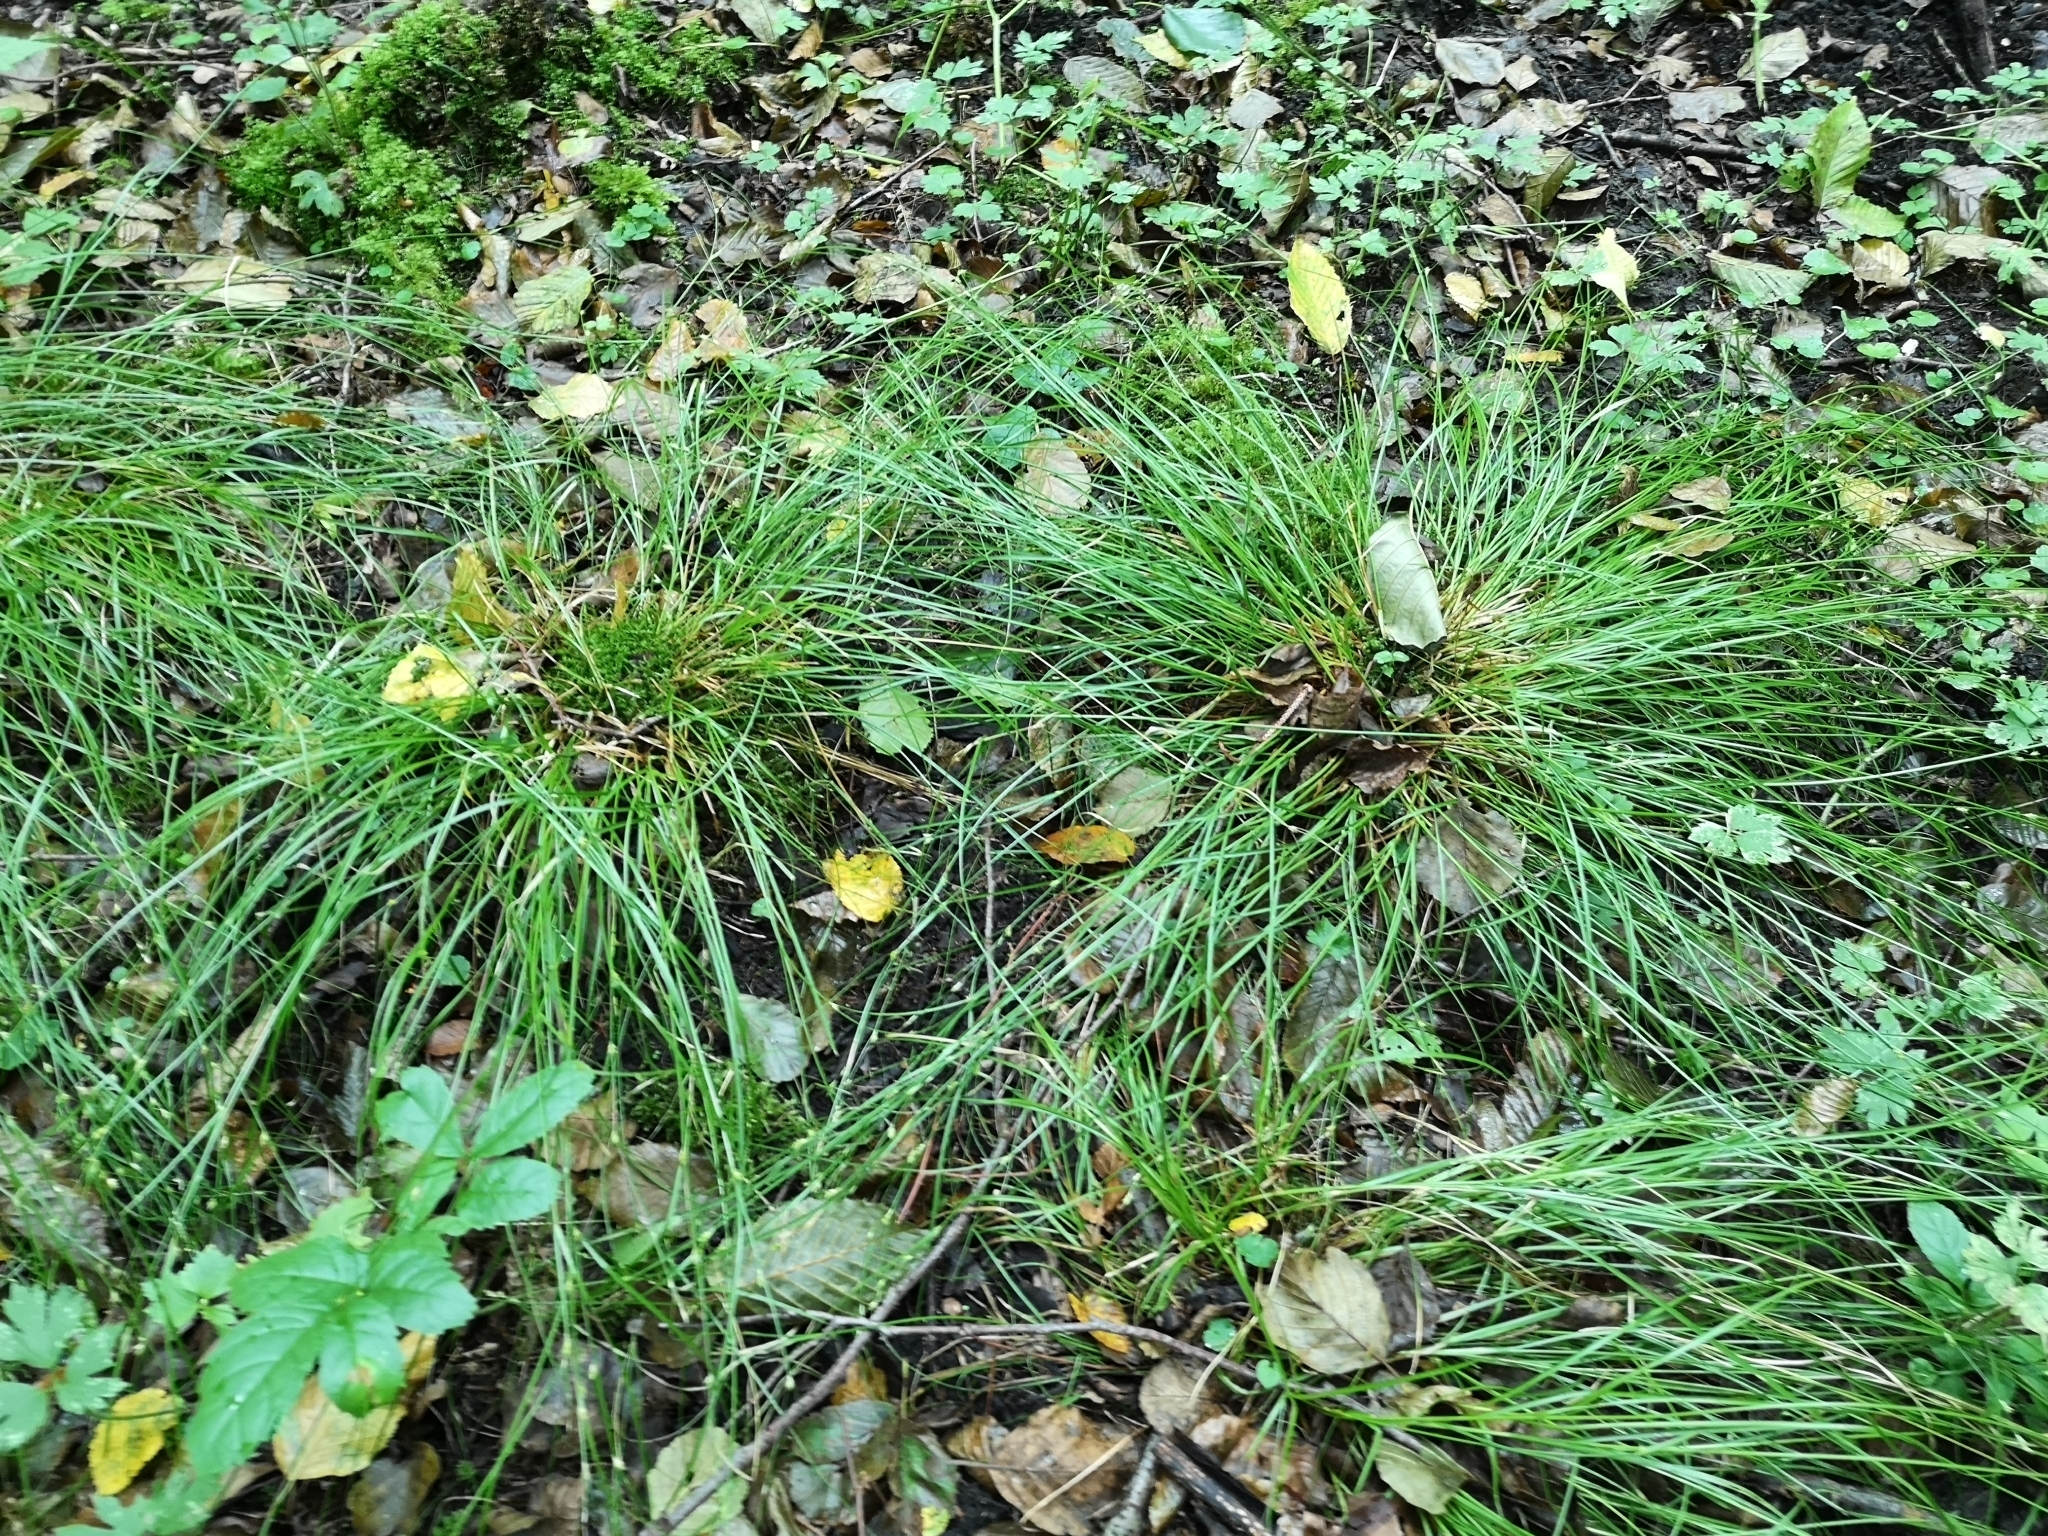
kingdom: Plantae
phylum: Tracheophyta
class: Liliopsida
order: Poales
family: Cyperaceae
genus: Carex
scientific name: Carex remota
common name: Remote sedge
